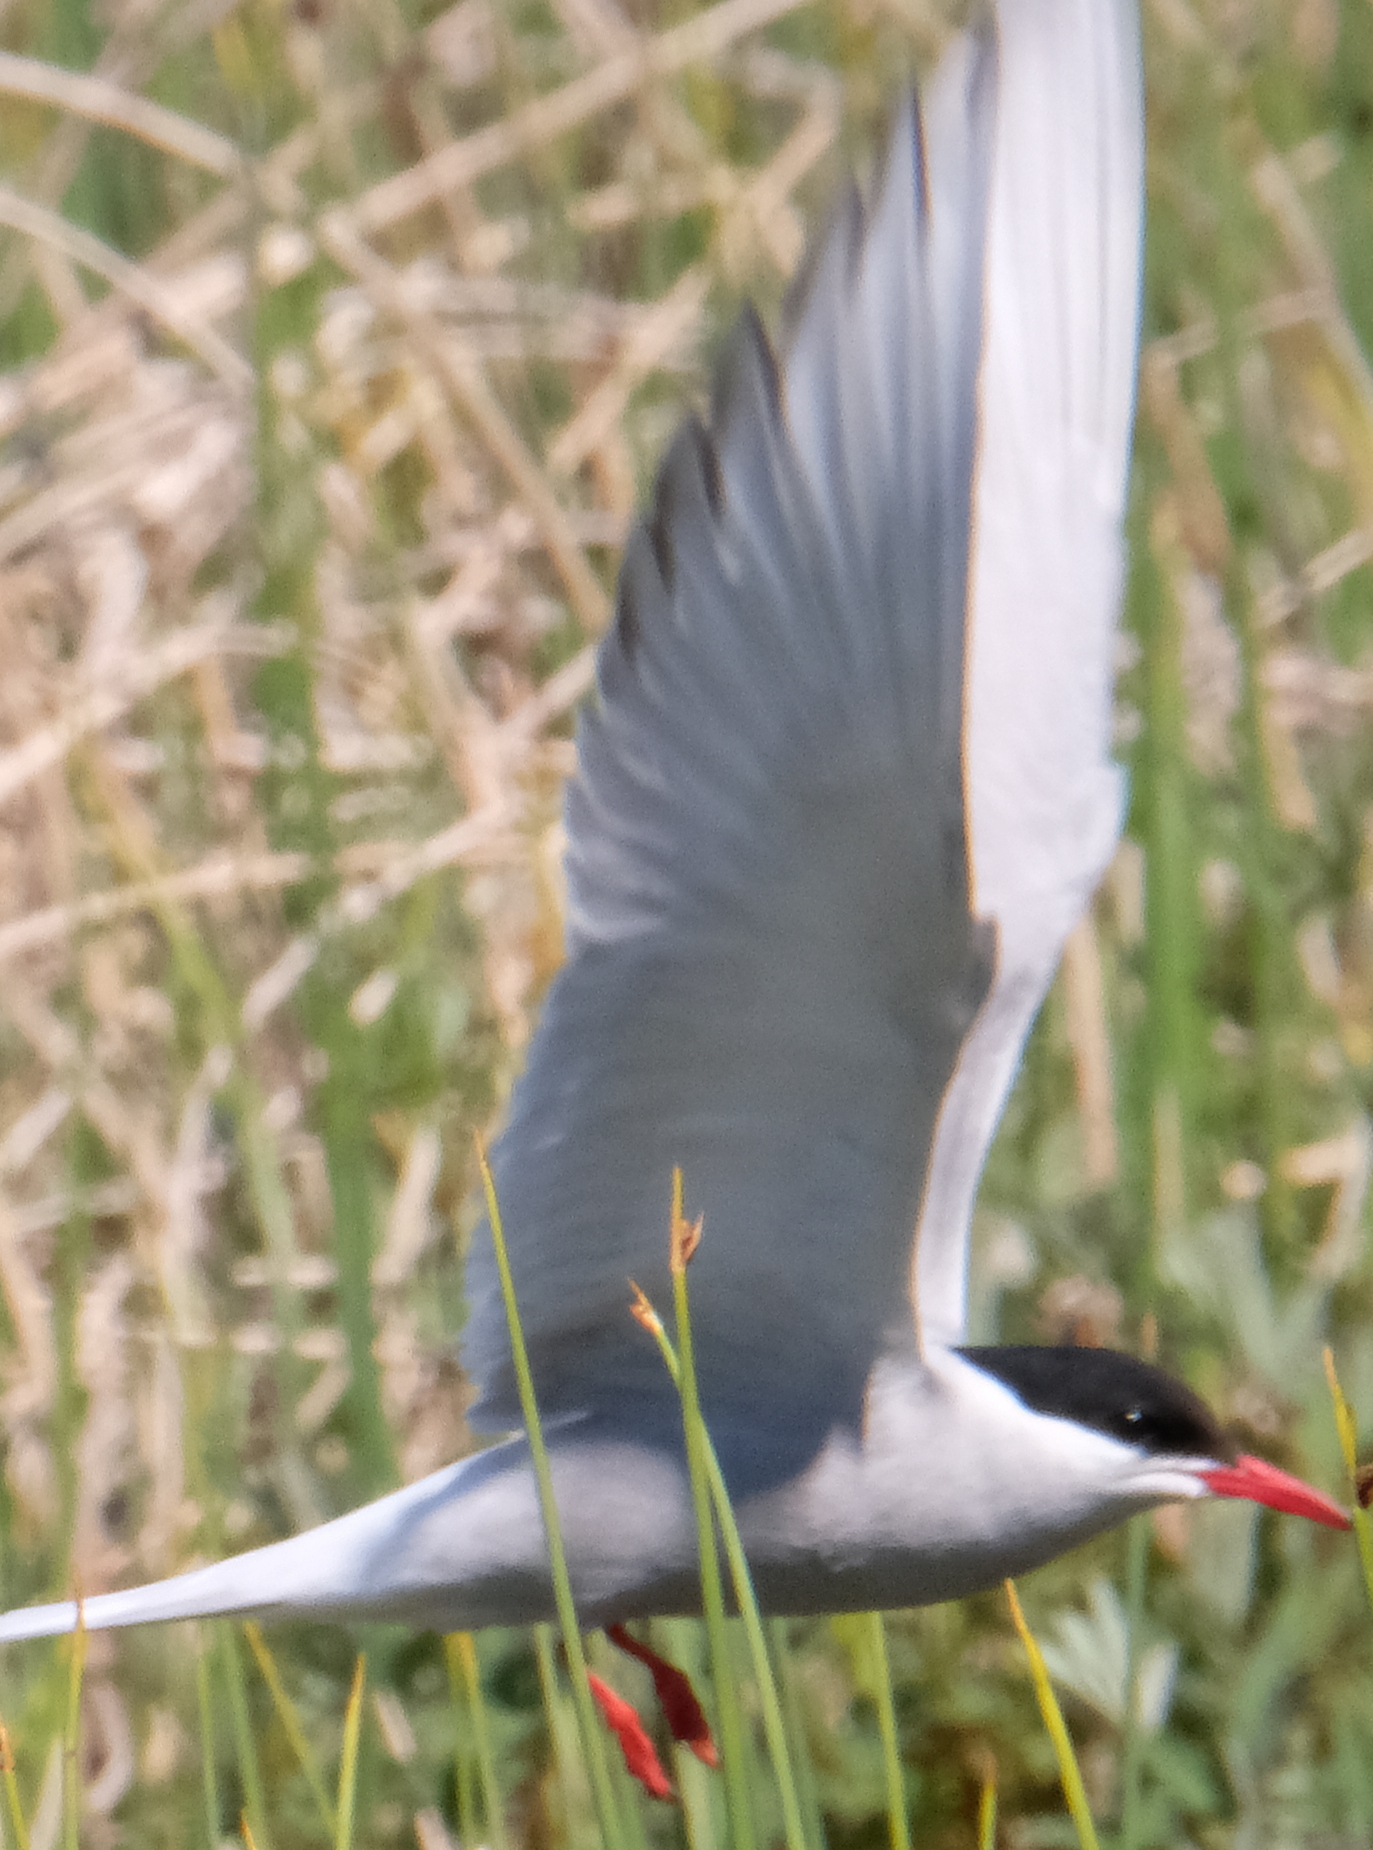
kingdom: Animalia
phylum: Chordata
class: Aves
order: Charadriiformes
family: Laridae
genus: Sterna
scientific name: Sterna paradisaea
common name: Arctic tern
